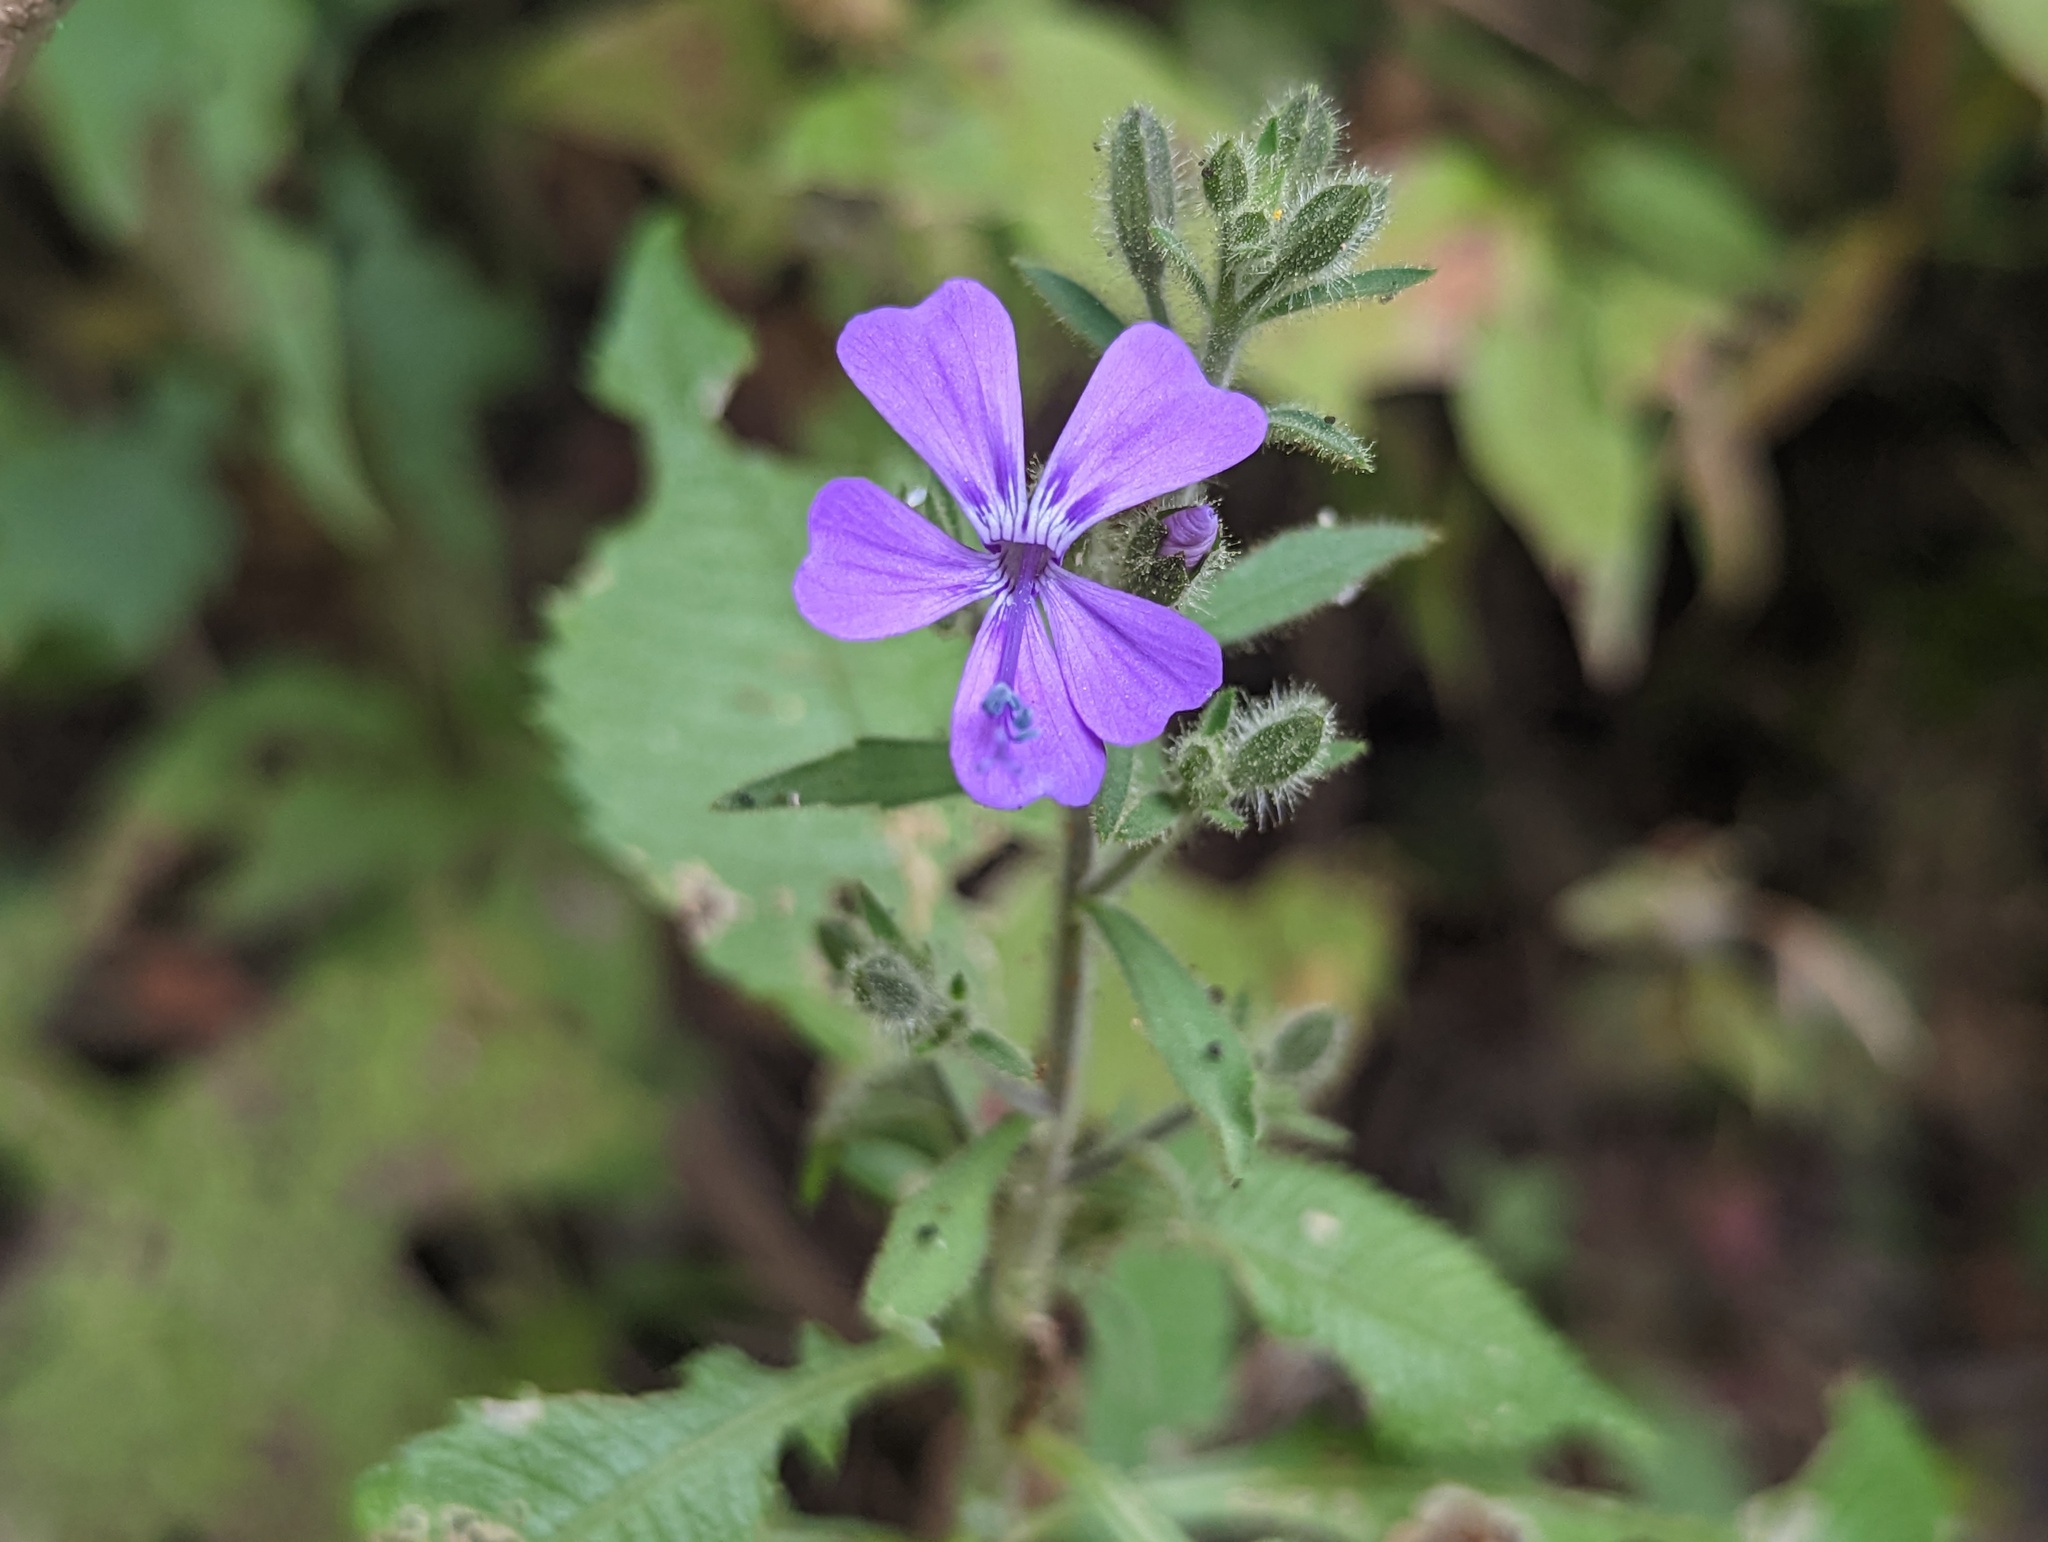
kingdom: Plantae
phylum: Tracheophyta
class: Magnoliopsida
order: Ericales
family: Polemoniaceae
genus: Bonplandia
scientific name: Bonplandia geminiflora
